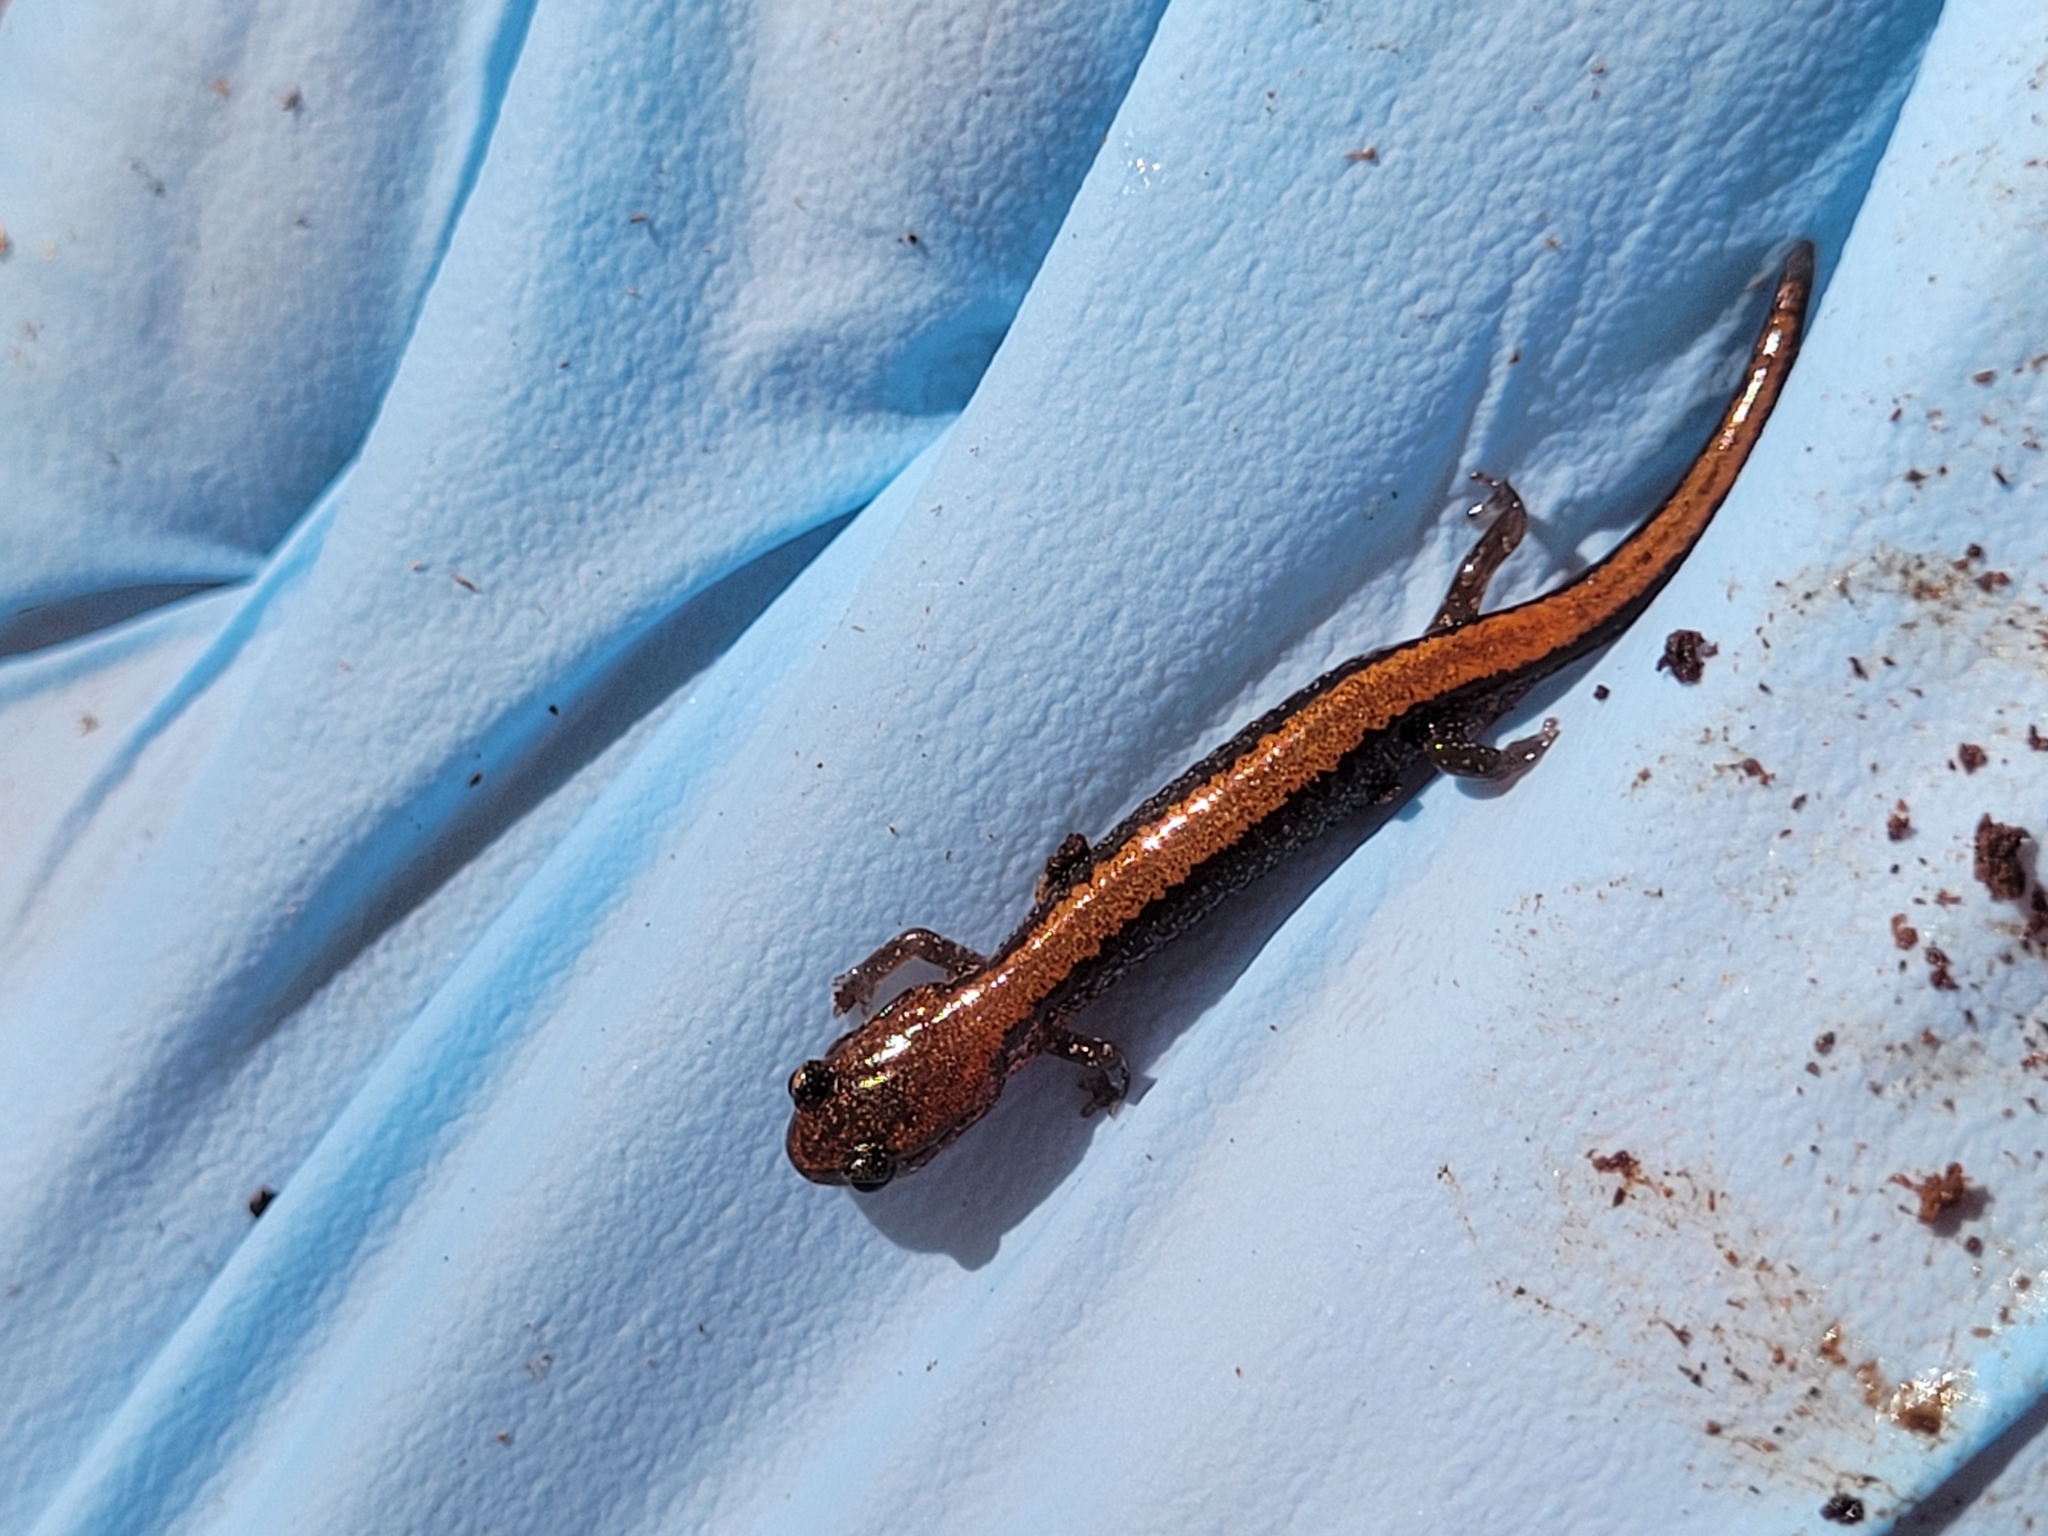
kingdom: Animalia
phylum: Chordata
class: Amphibia
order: Caudata
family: Plethodontidae
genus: Plethodon
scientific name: Plethodon cinereus
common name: Redback salamander
